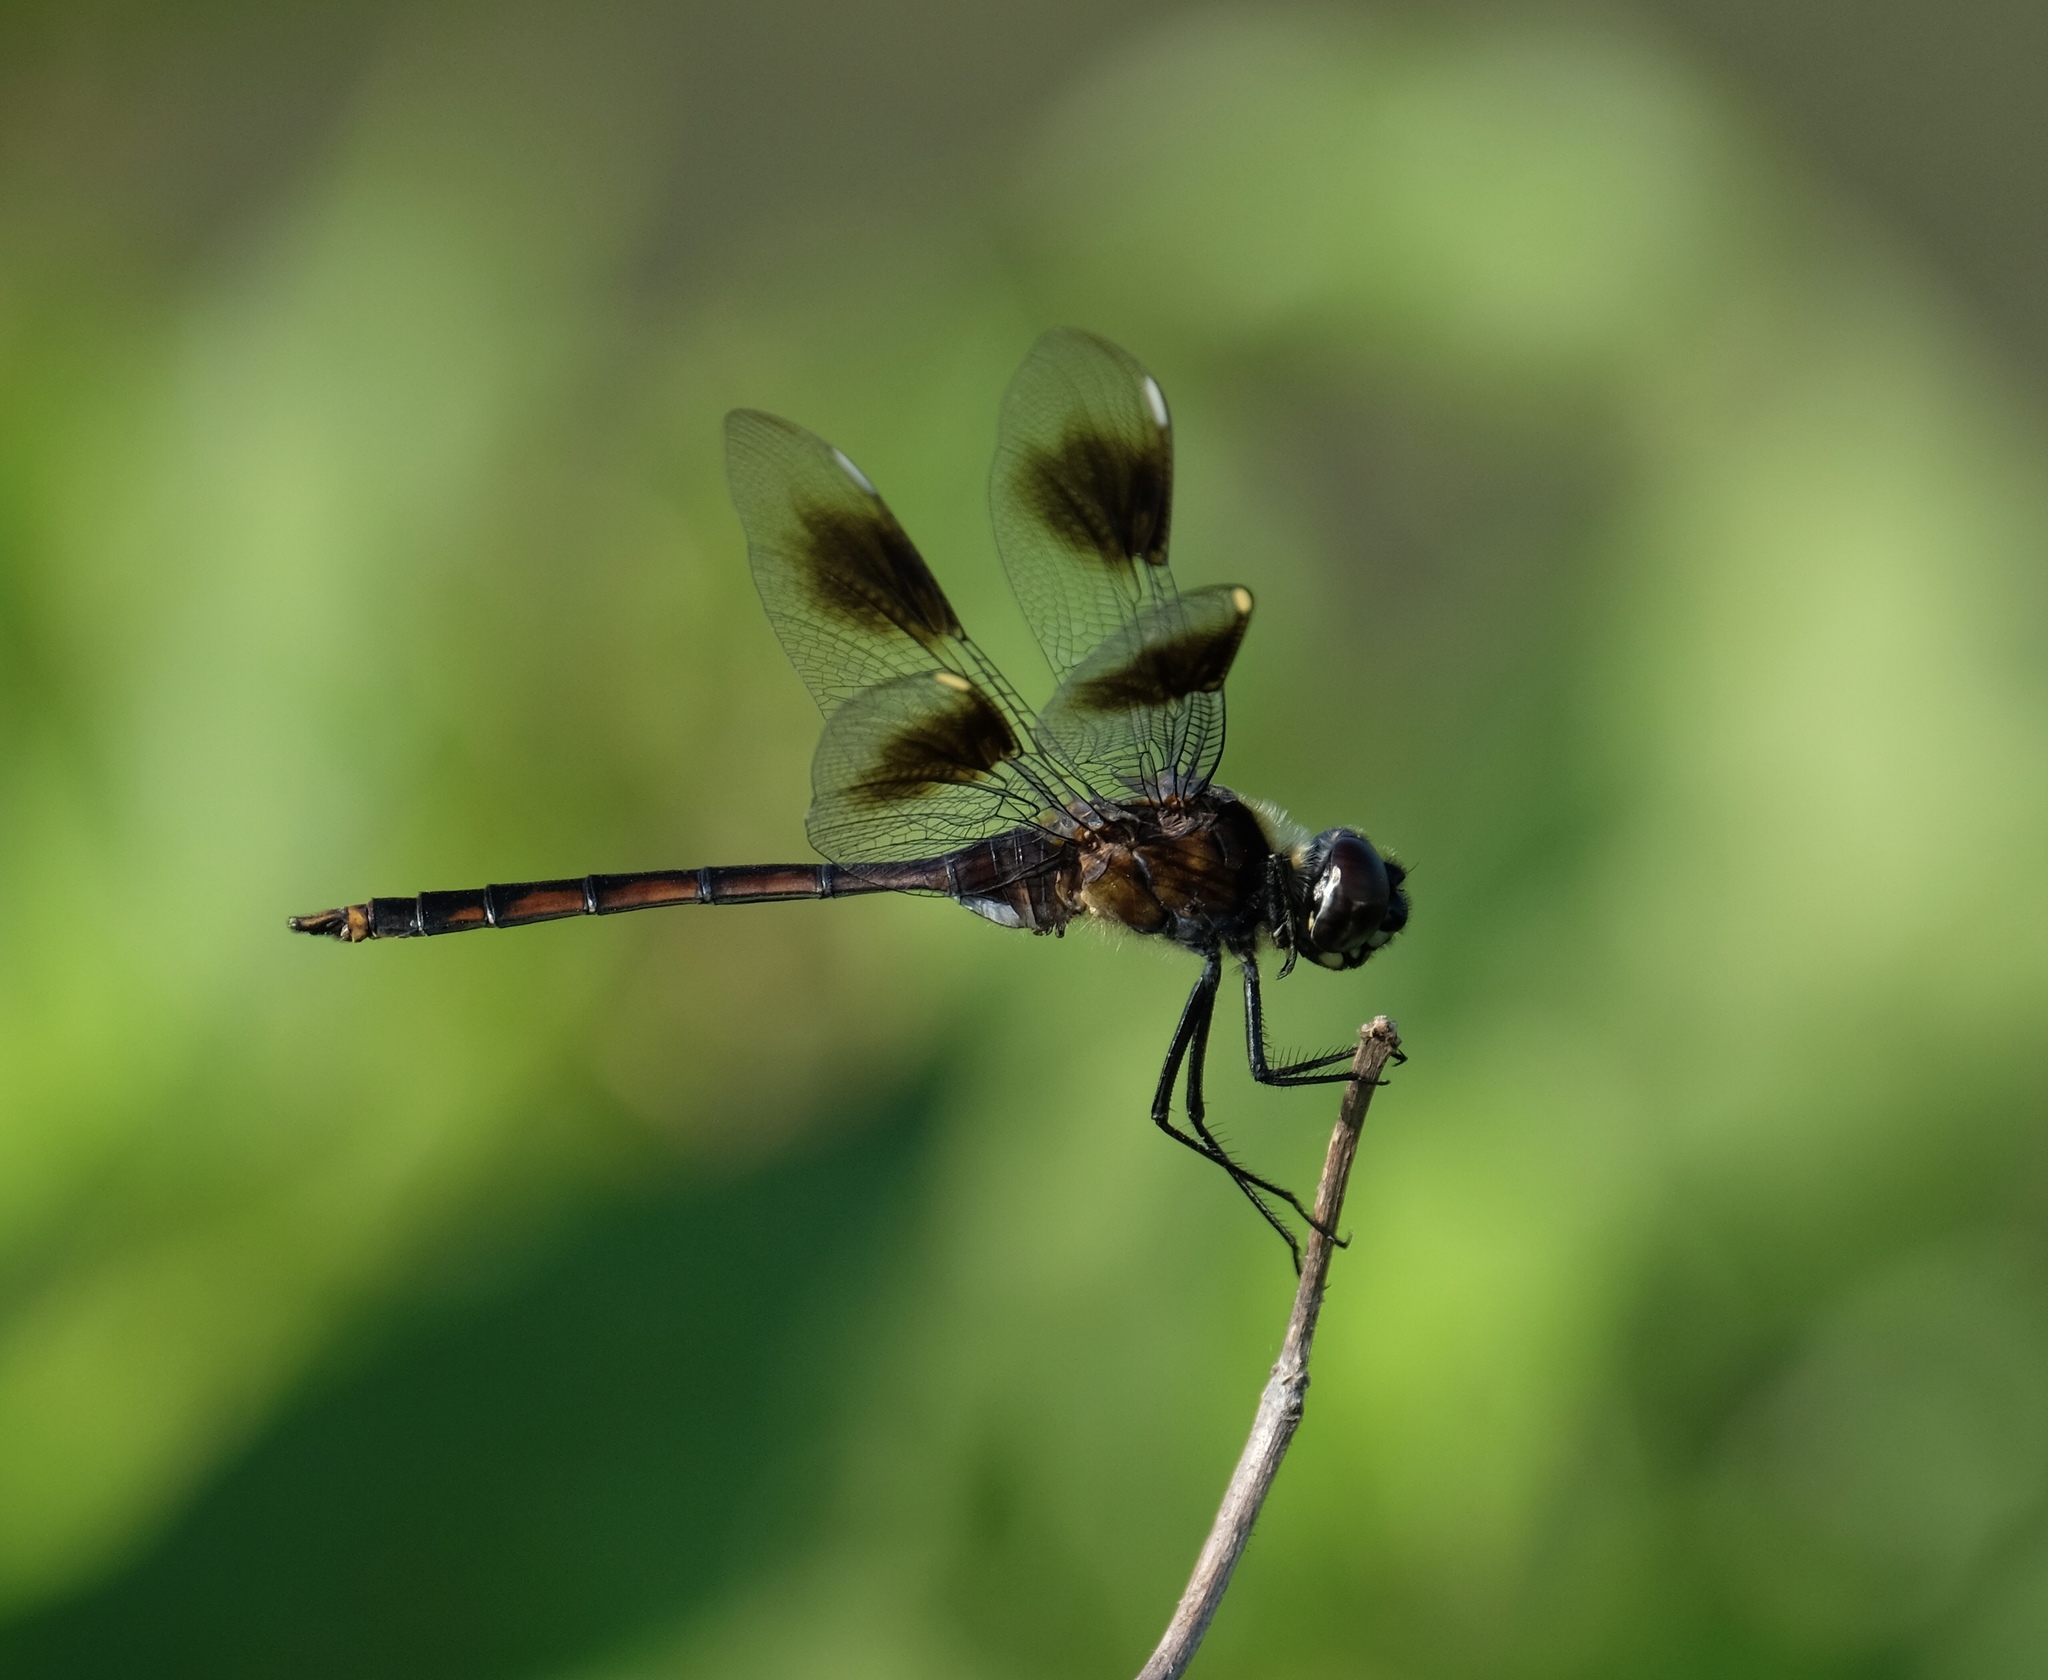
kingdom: Animalia
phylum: Arthropoda
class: Insecta
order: Odonata
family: Libellulidae
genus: Brachymesia
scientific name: Brachymesia gravida
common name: Four-spotted pennant
